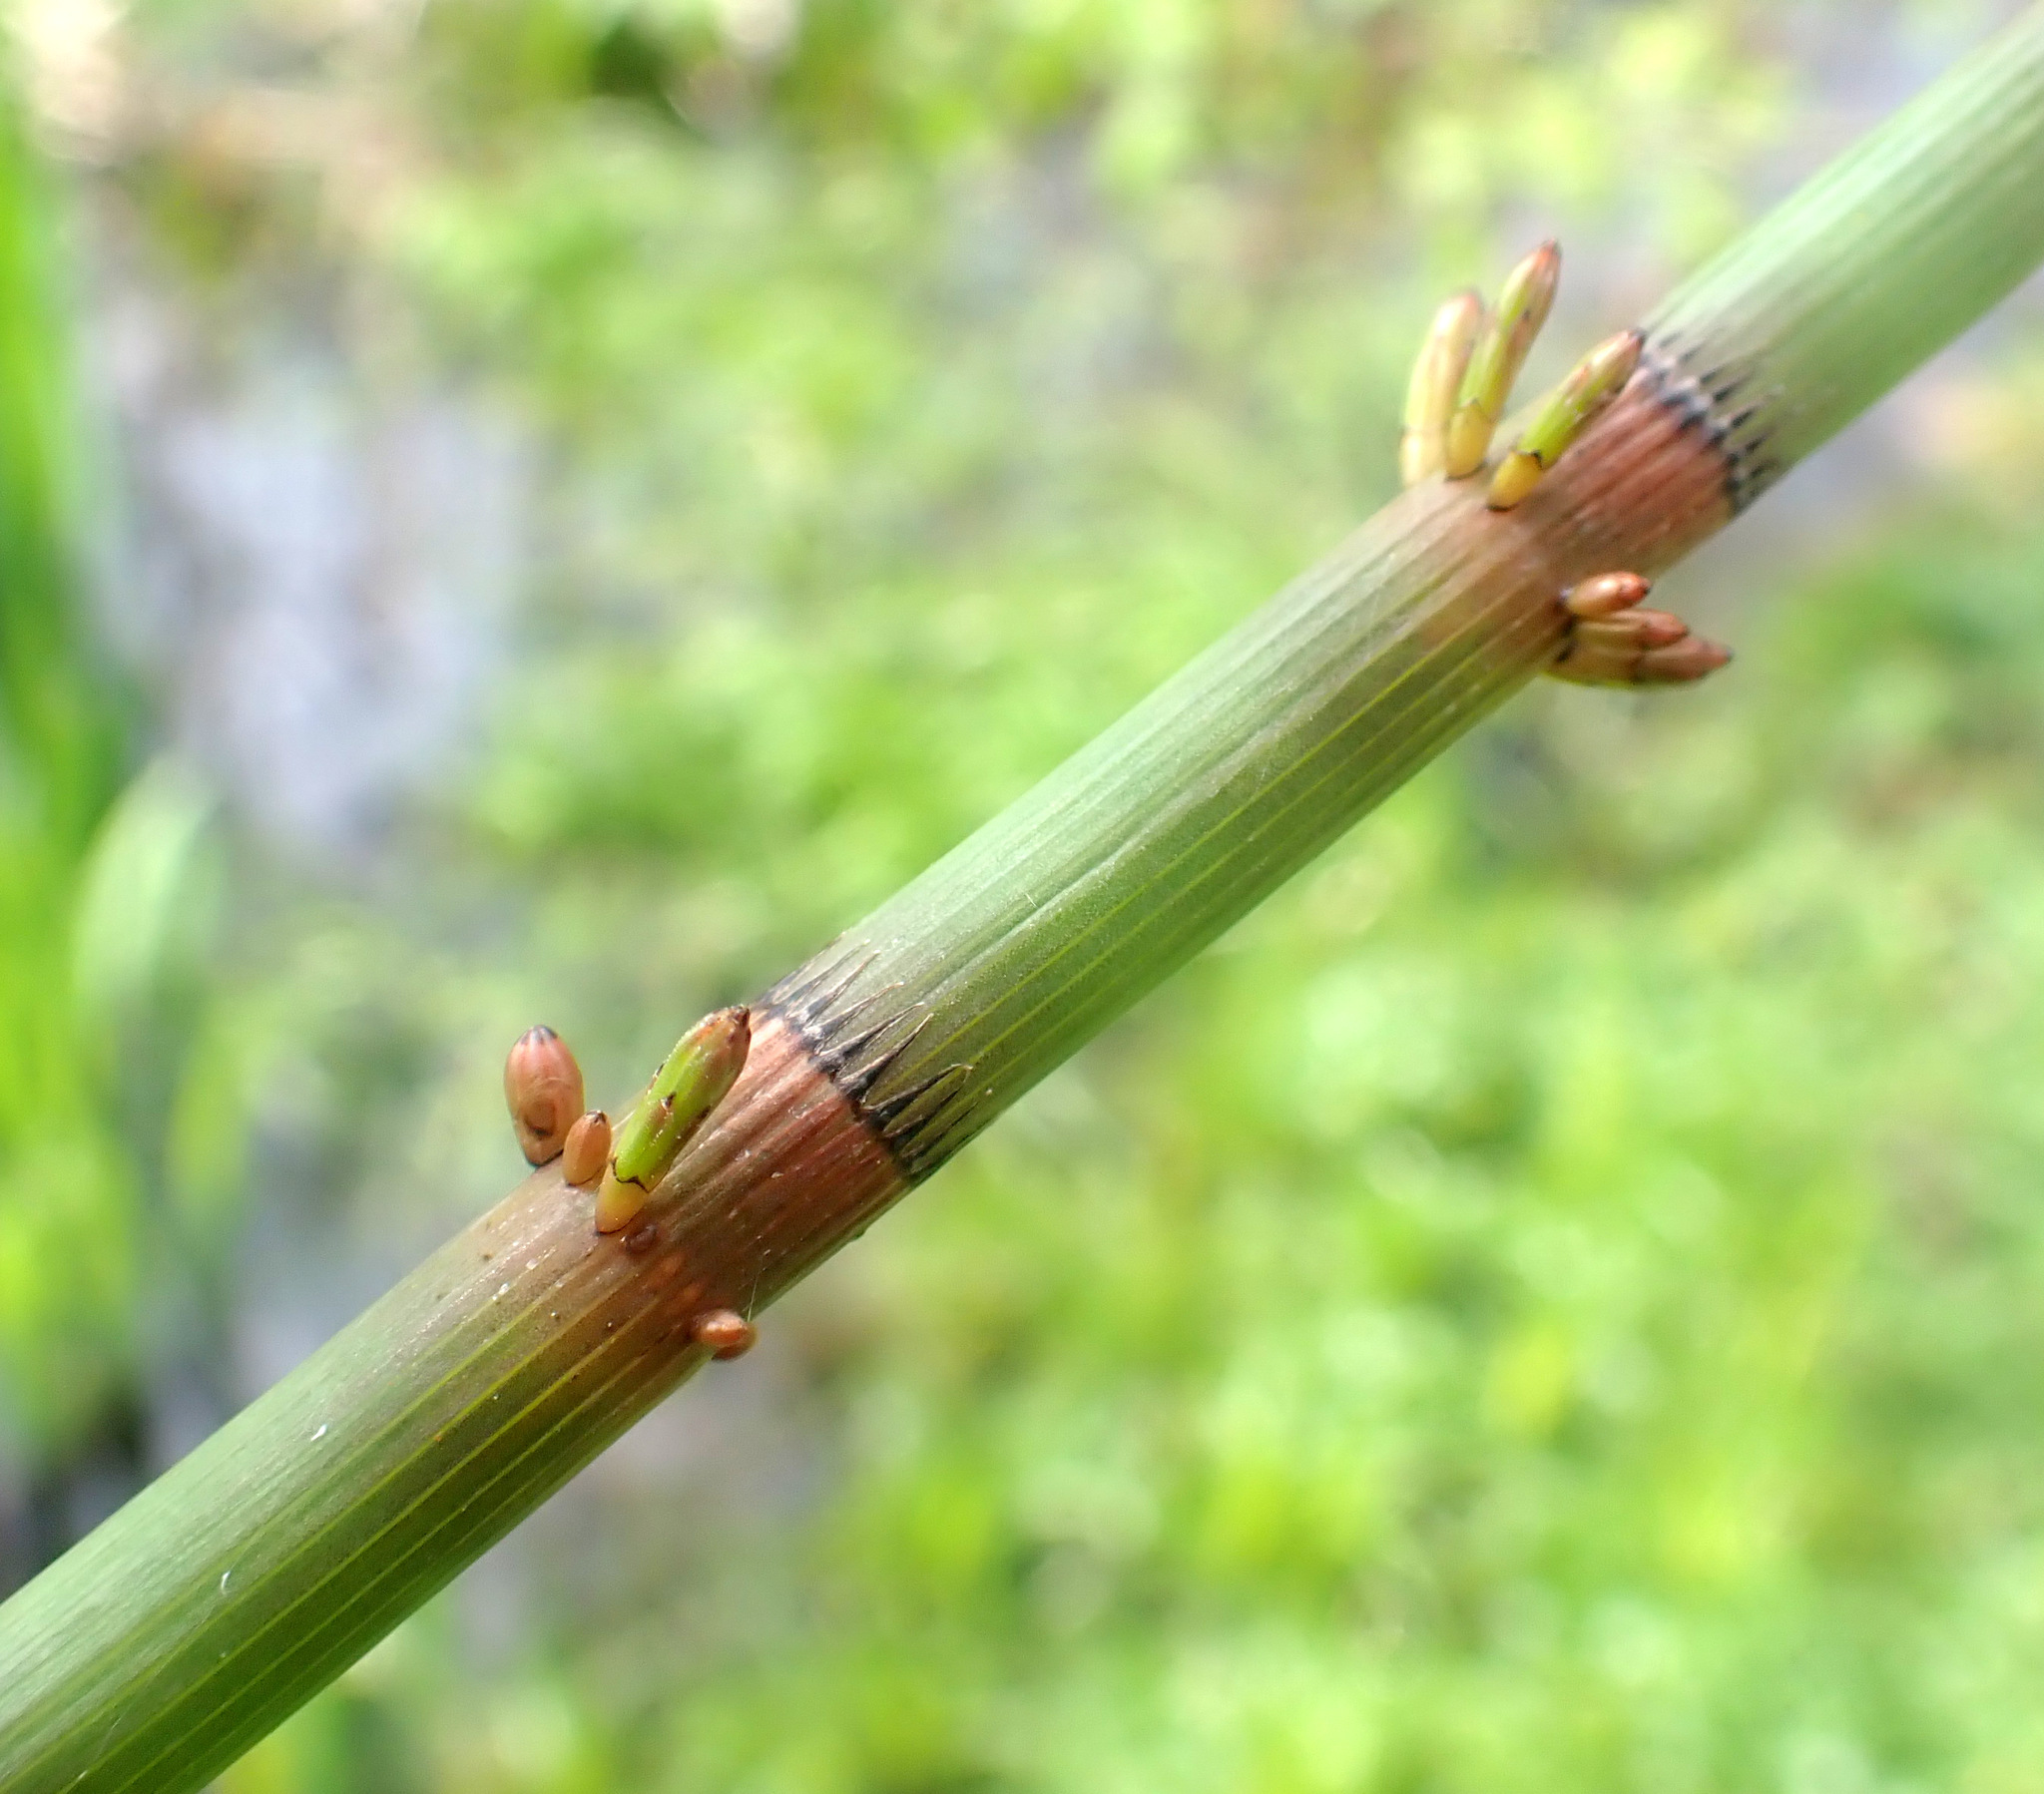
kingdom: Plantae
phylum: Tracheophyta
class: Polypodiopsida
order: Equisetales
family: Equisetaceae
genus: Equisetum
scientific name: Equisetum fluviatile
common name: Water horsetail
